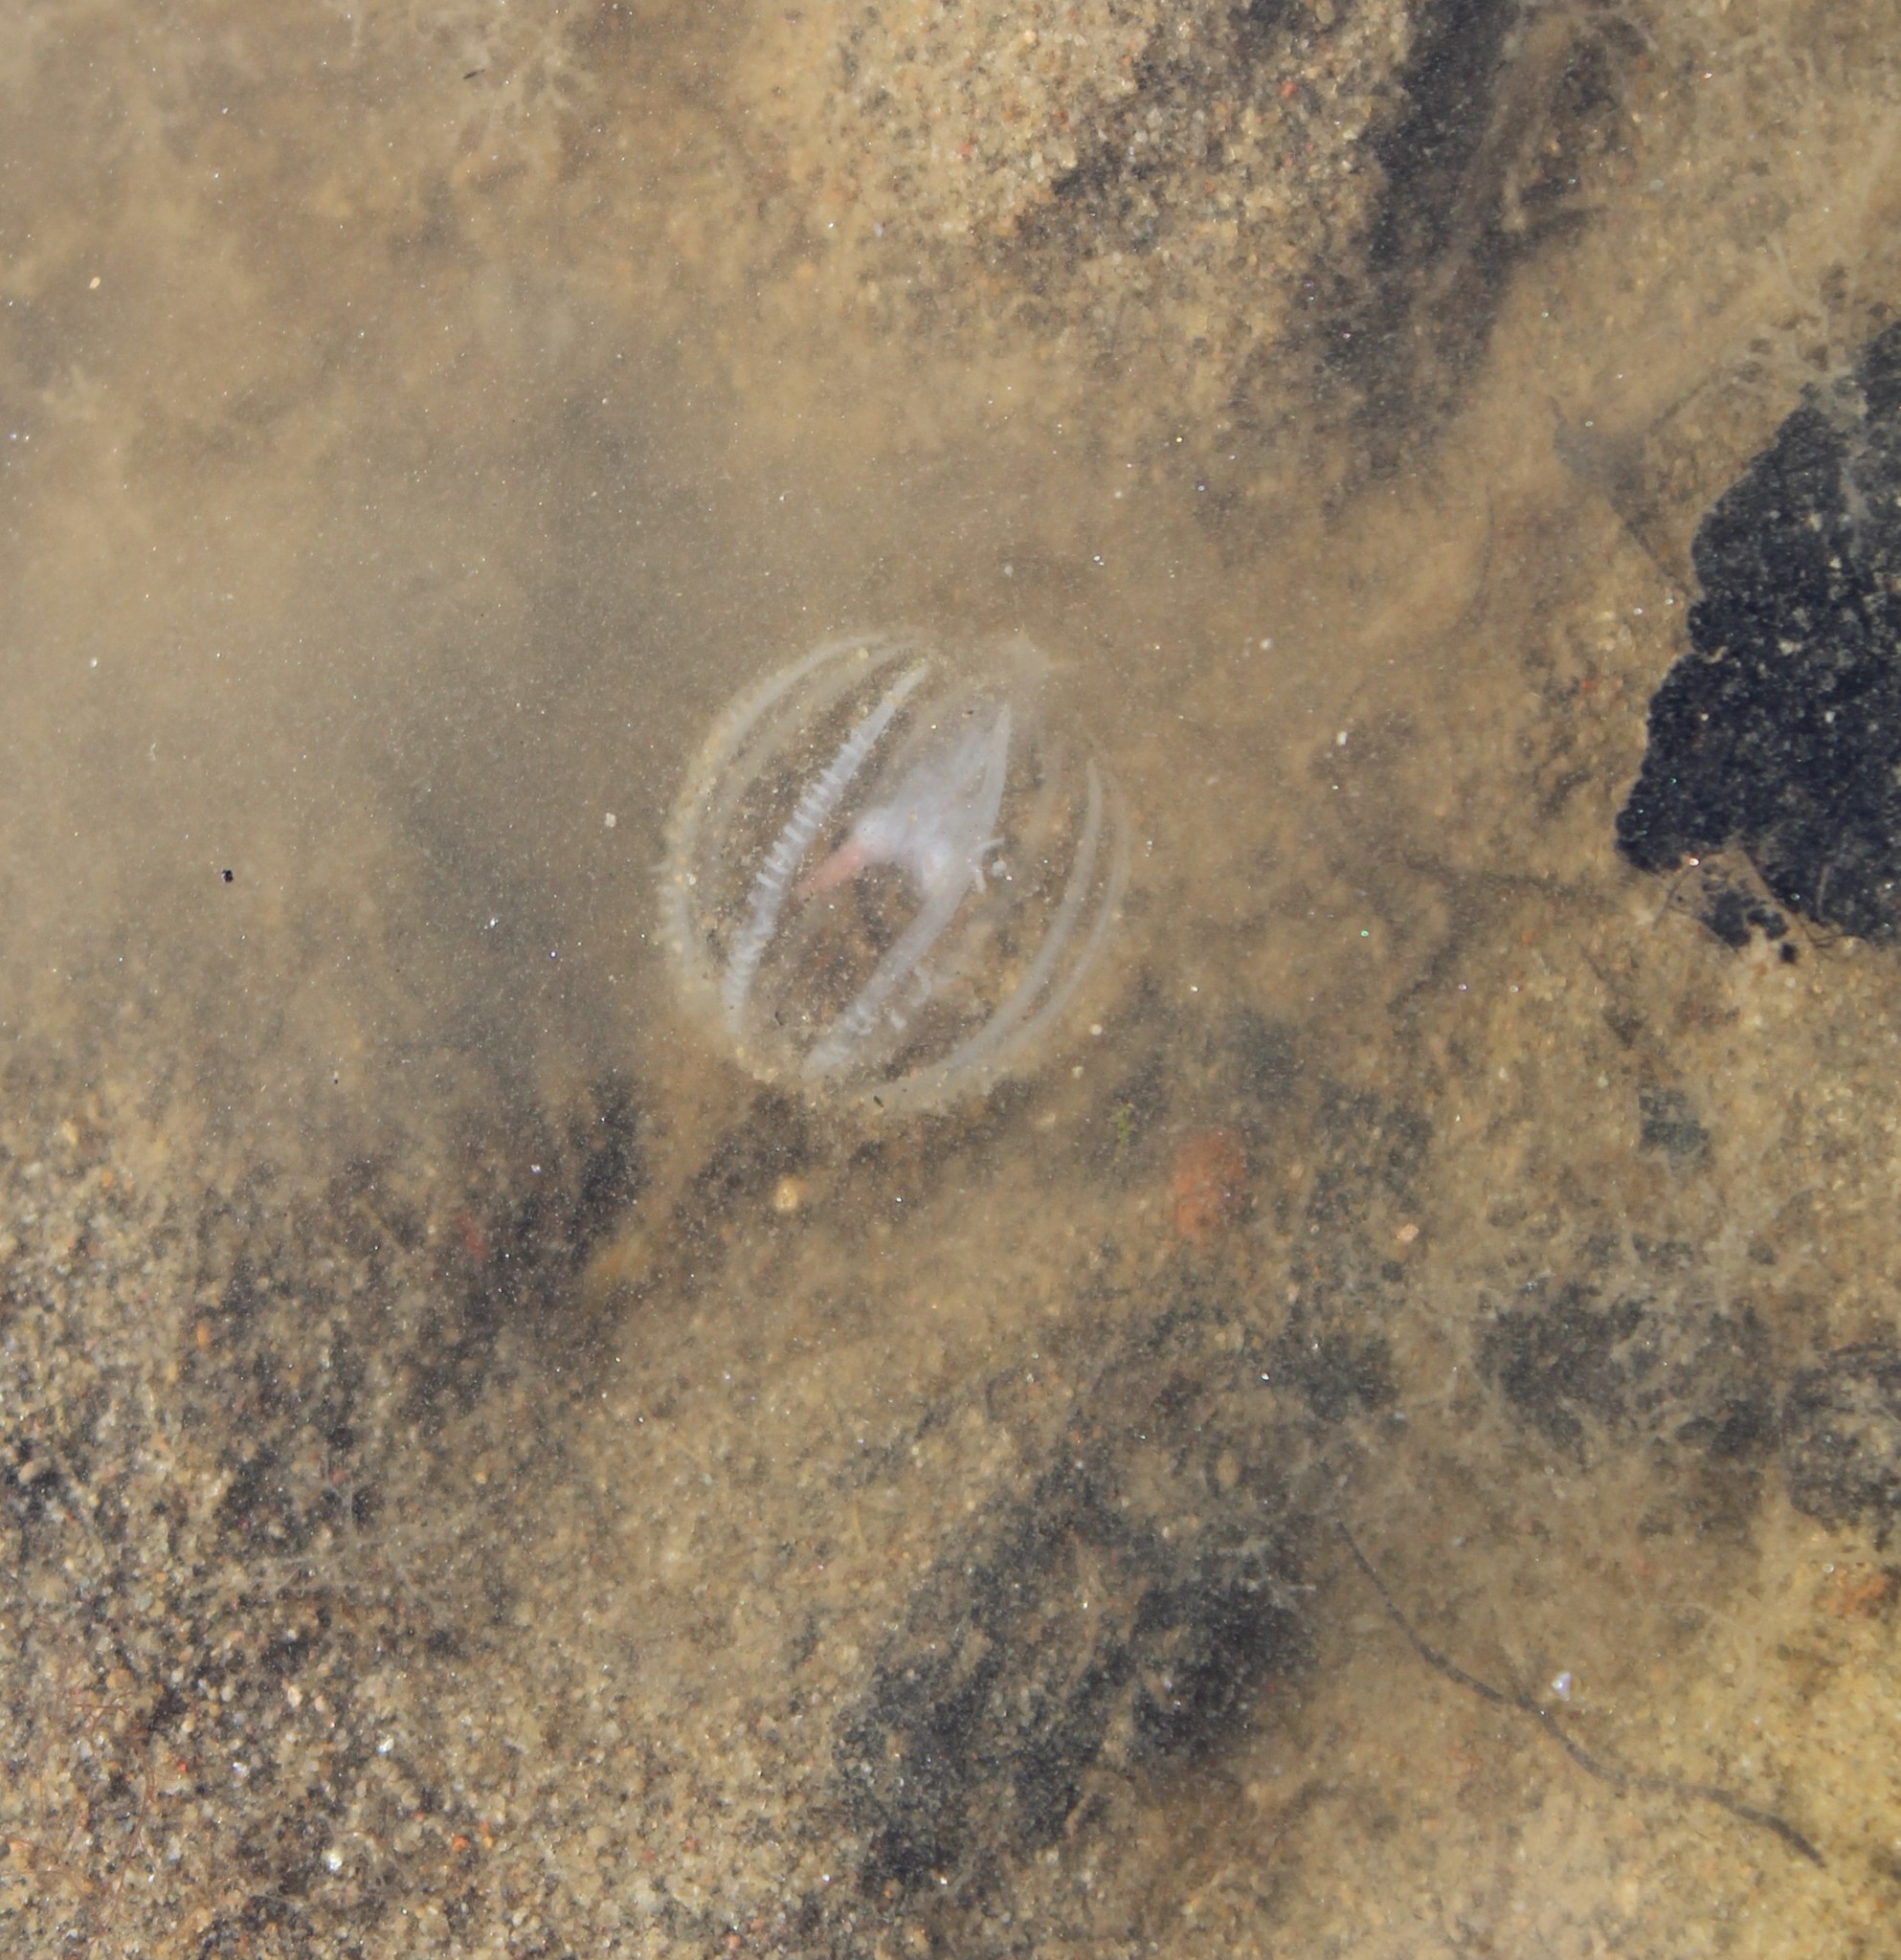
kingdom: Animalia
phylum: Ctenophora
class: Tentaculata
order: Cydippida
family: Pleurobrachiidae
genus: Pleurobrachia
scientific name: Pleurobrachia bachei
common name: Pacific sea gooseberry
